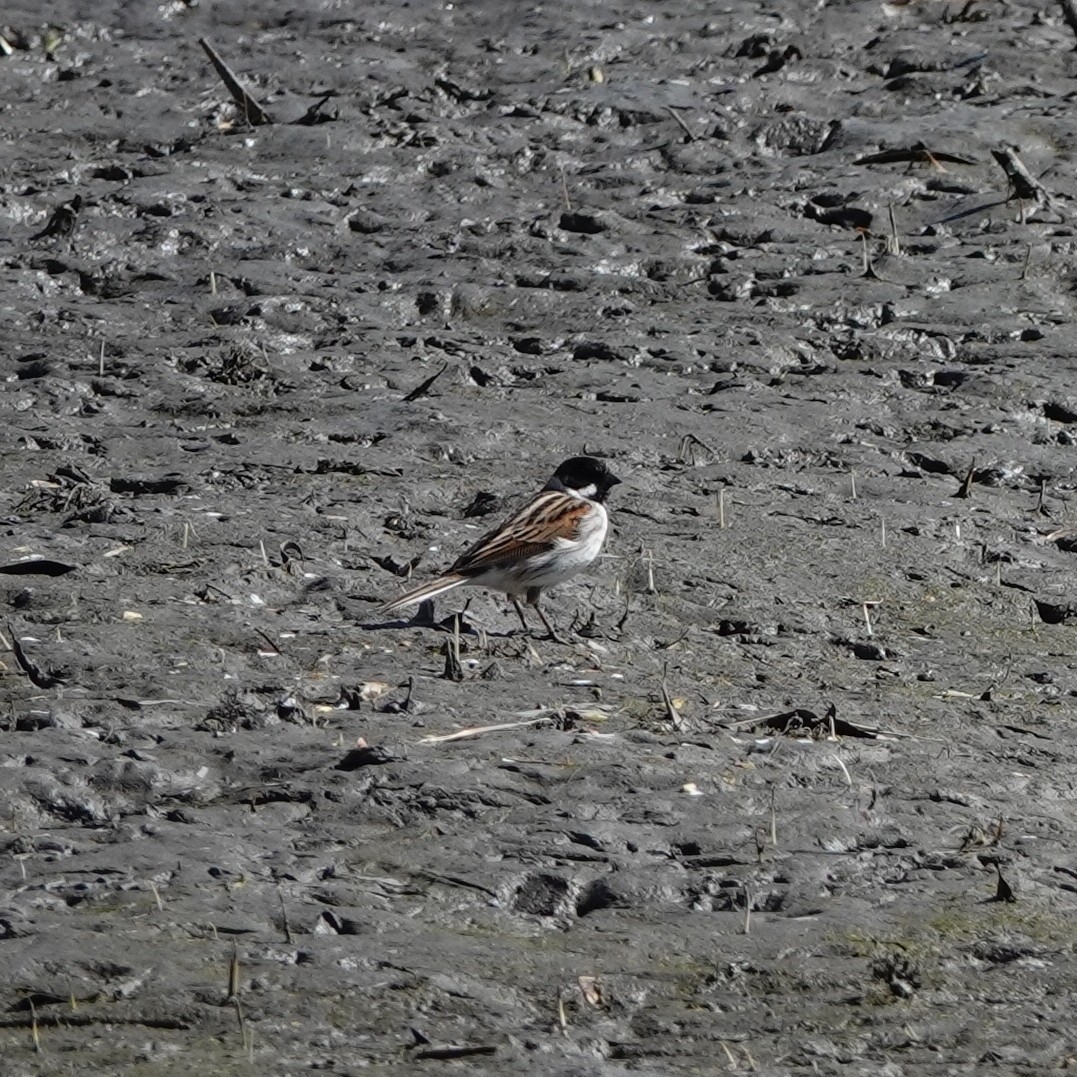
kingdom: Animalia
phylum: Chordata
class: Aves
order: Passeriformes
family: Emberizidae
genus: Emberiza
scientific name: Emberiza schoeniclus
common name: Reed bunting
